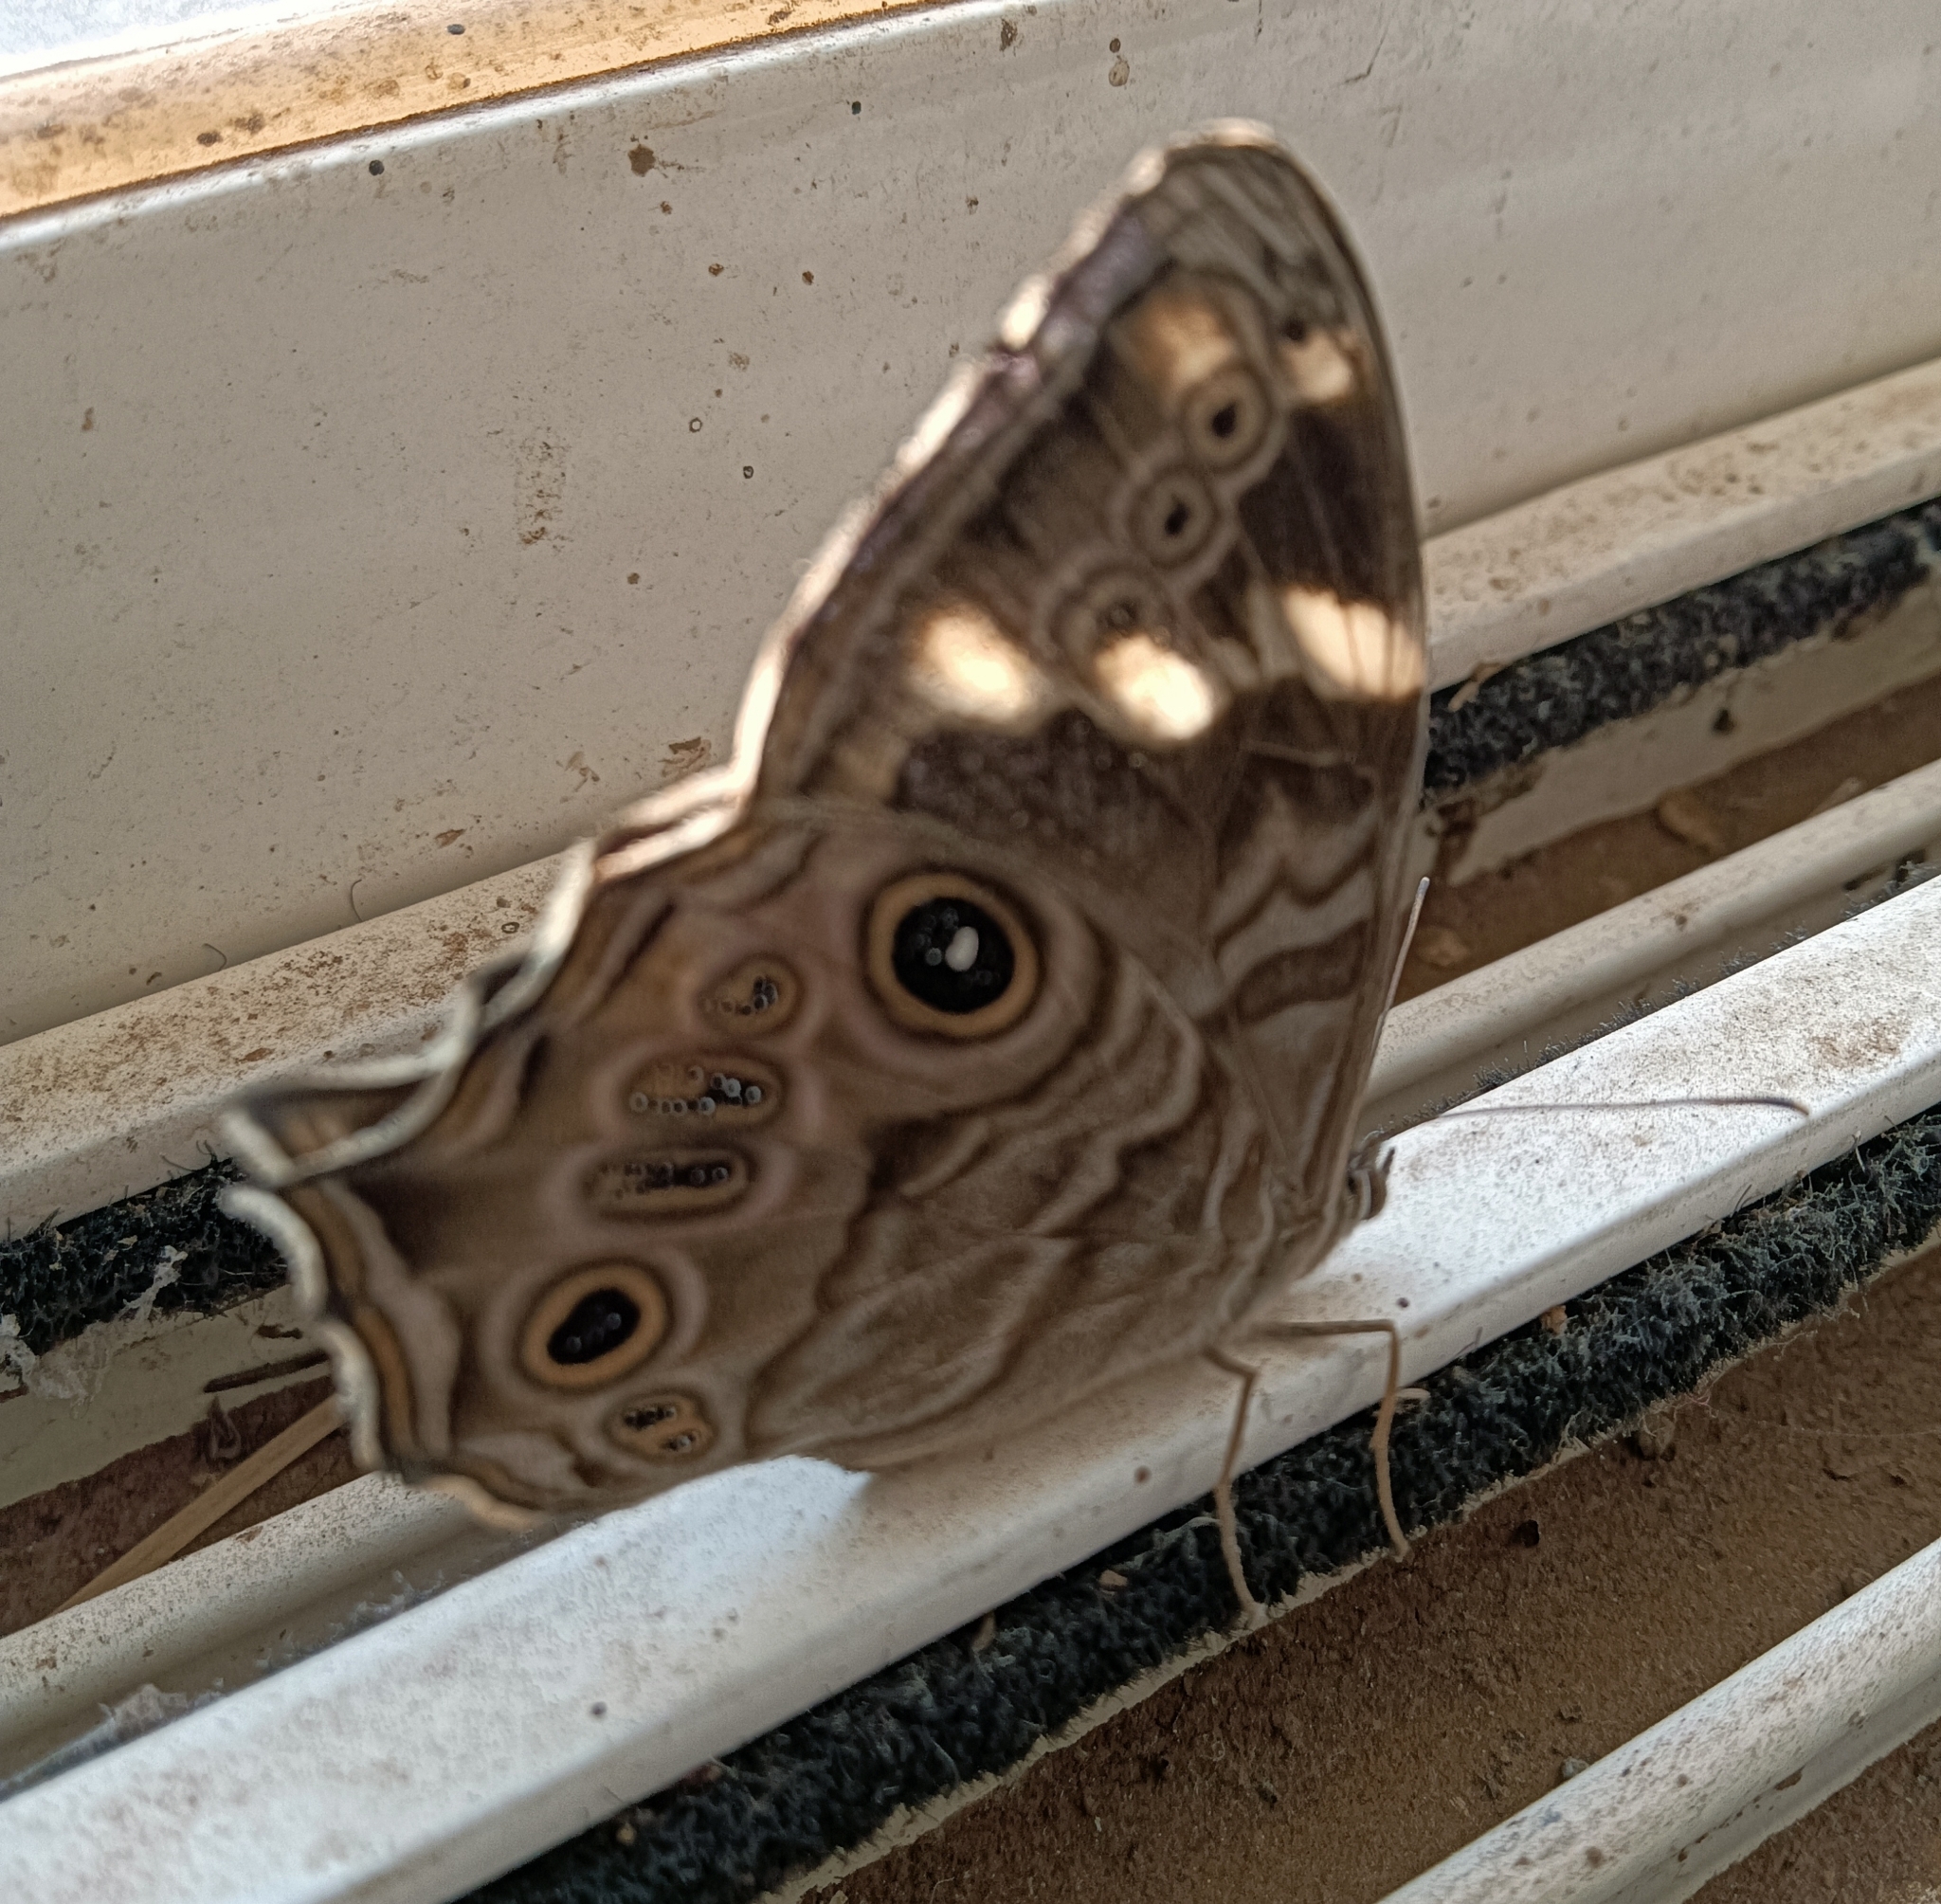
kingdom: Animalia
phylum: Arthropoda
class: Insecta
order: Lepidoptera
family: Nymphalidae
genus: Lethe
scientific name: Lethe rohria
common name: Common treebrown
